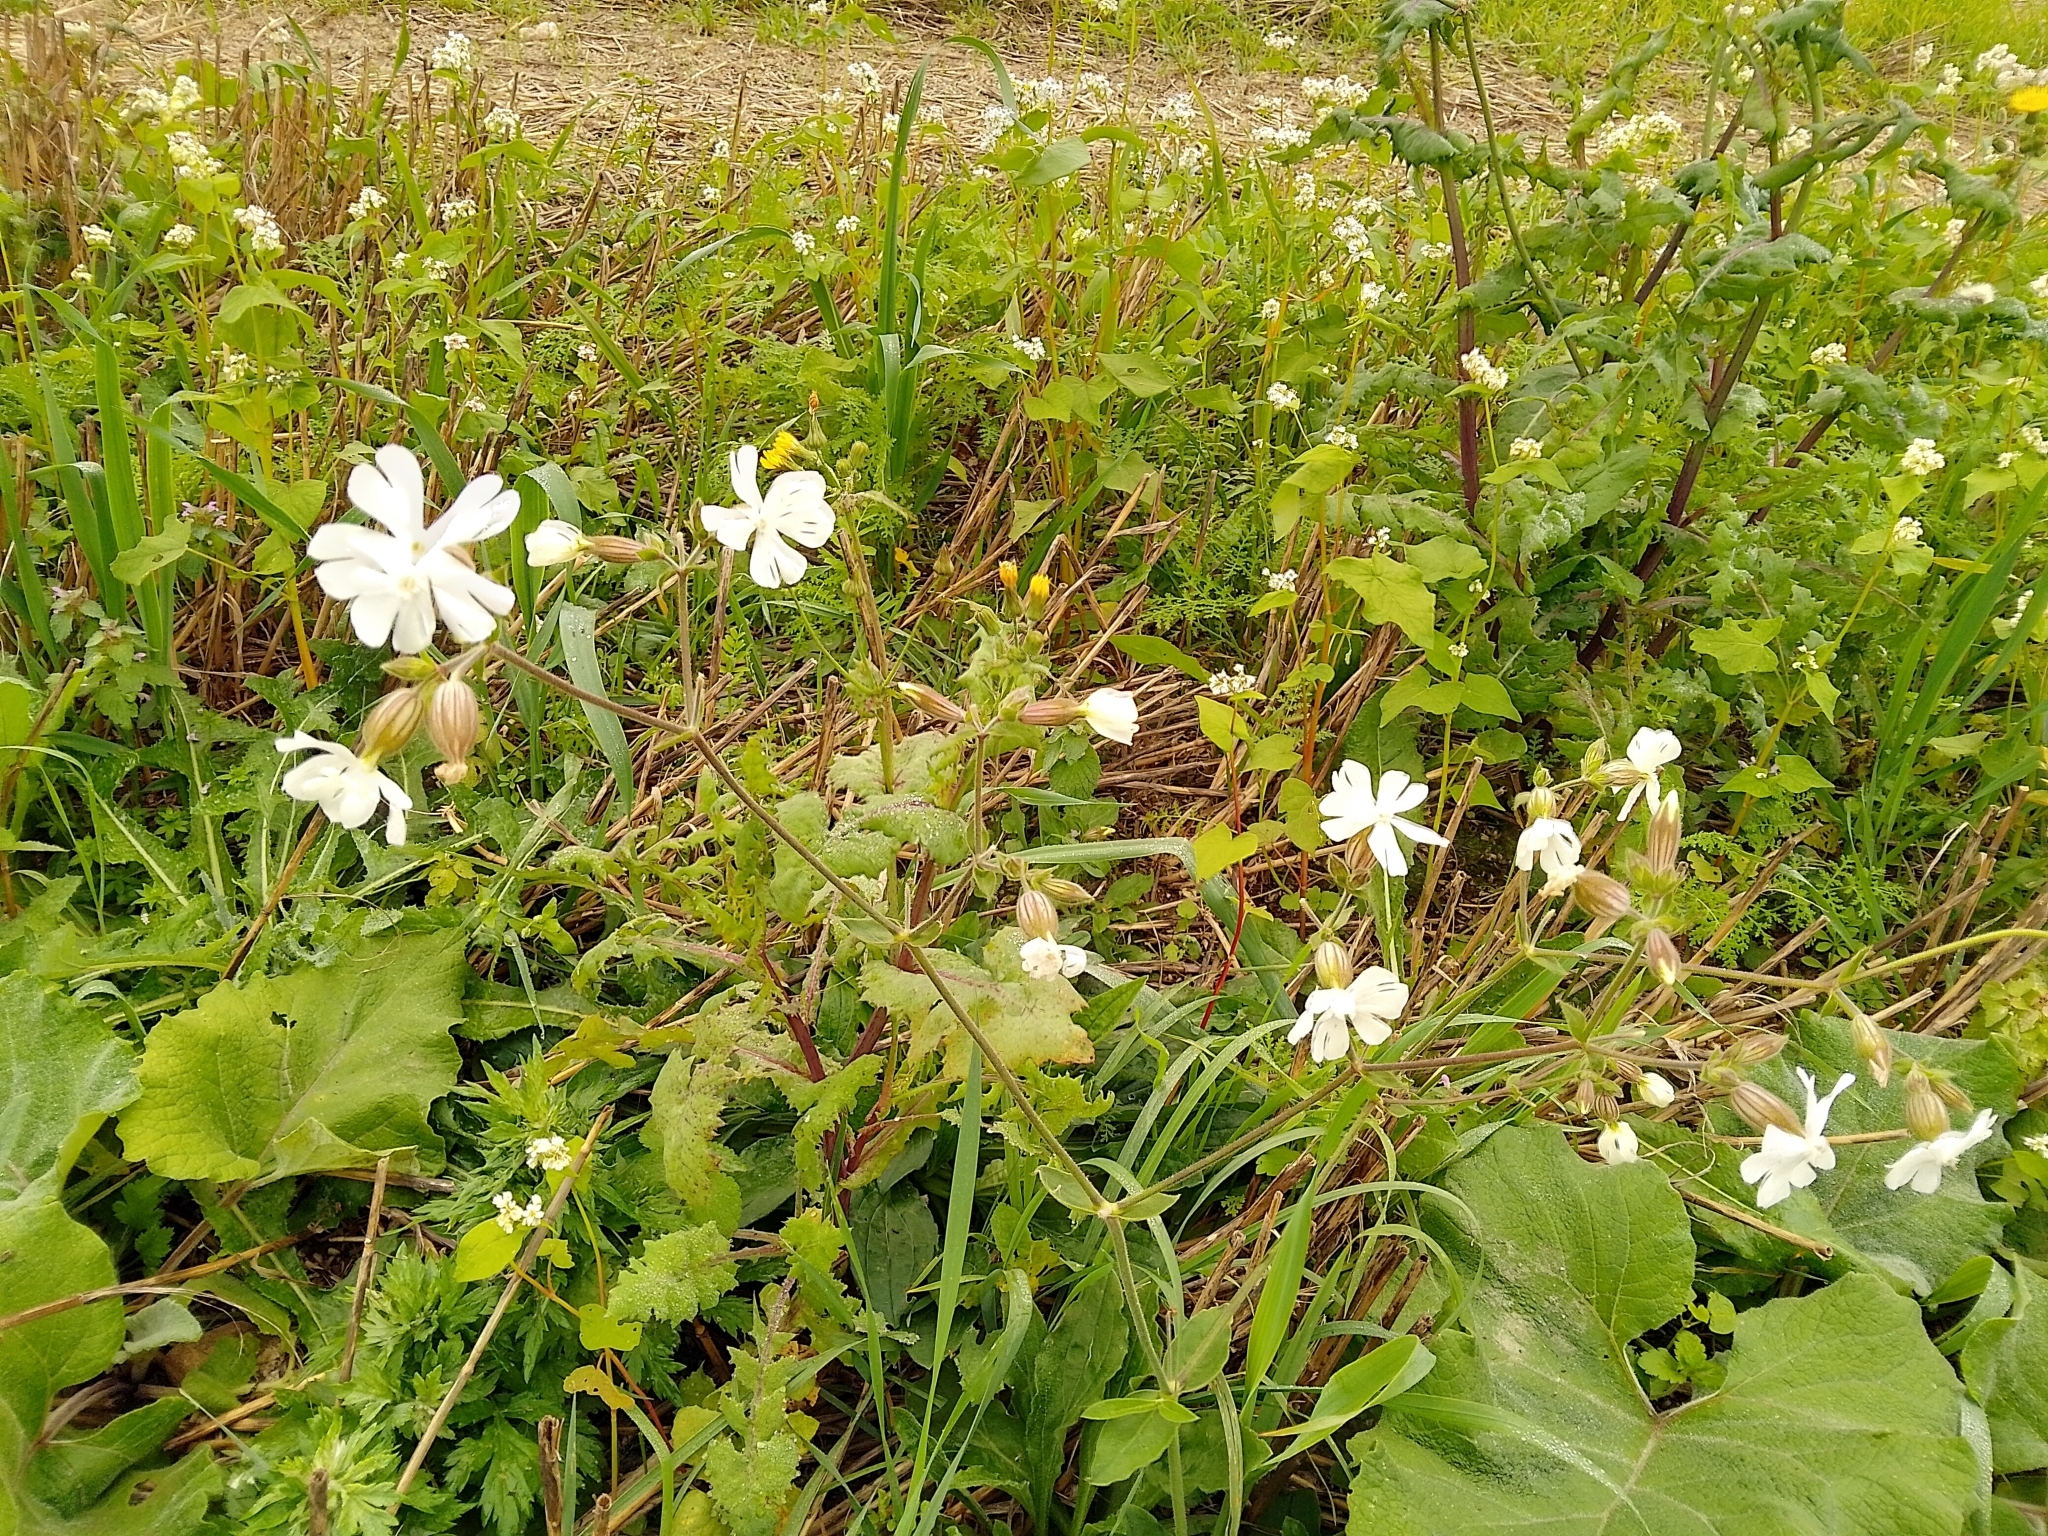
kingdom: Plantae
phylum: Tracheophyta
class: Magnoliopsida
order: Caryophyllales
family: Caryophyllaceae
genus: Silene
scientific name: Silene latifolia
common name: White campion
